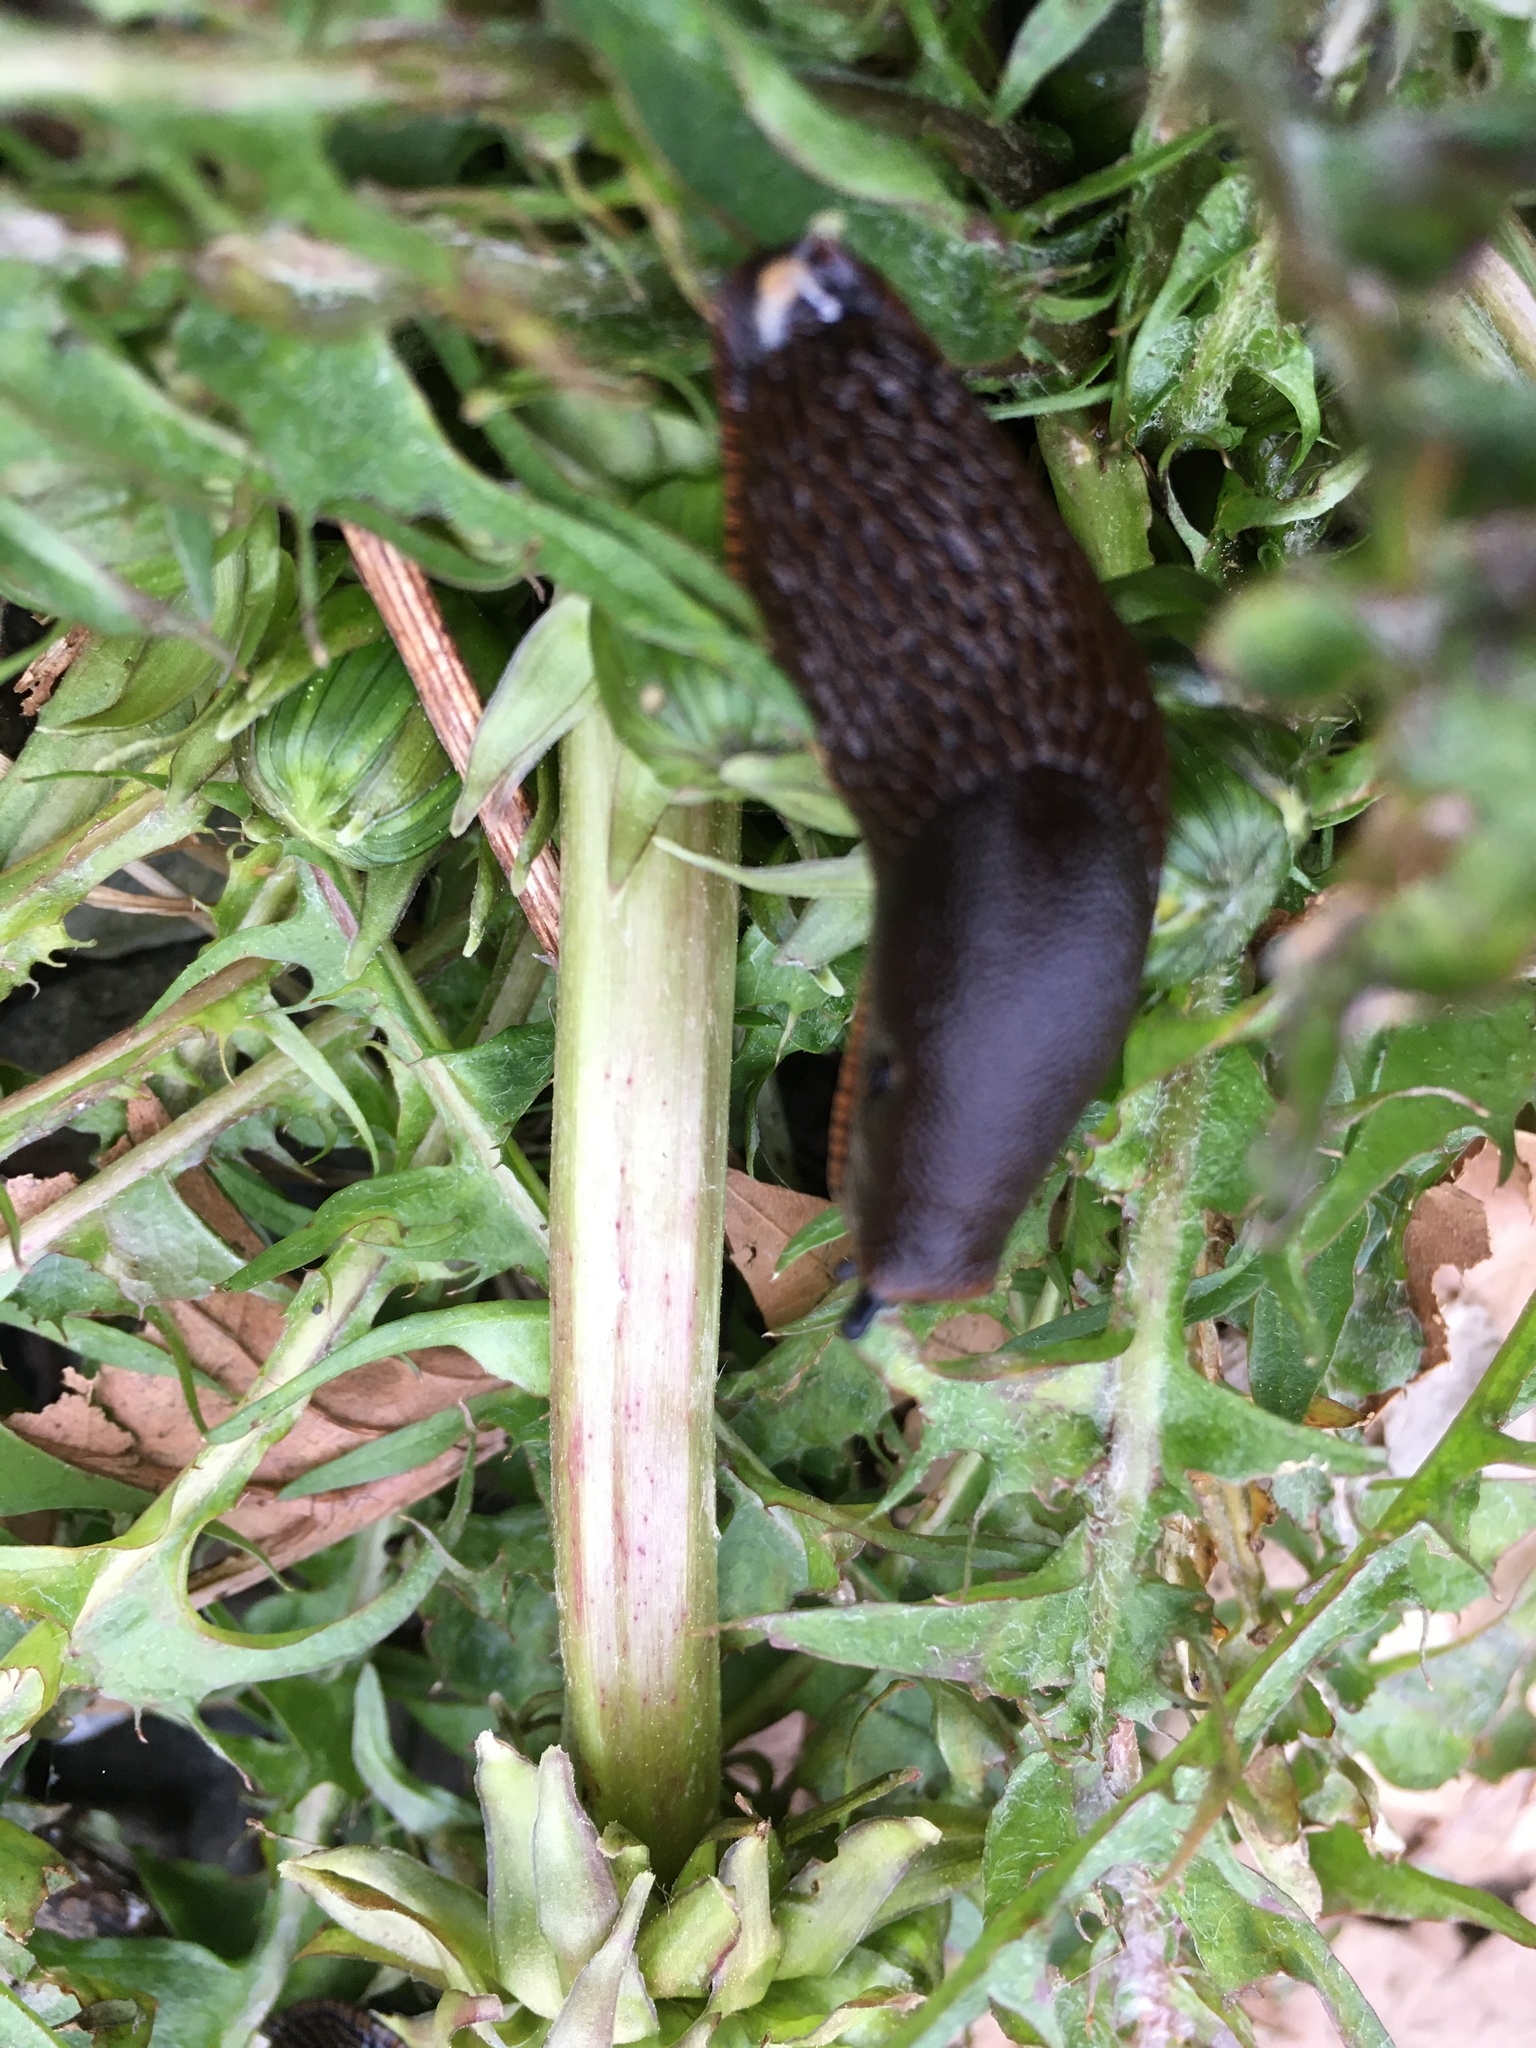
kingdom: Animalia
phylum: Mollusca
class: Gastropoda
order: Stylommatophora
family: Arionidae
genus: Arion
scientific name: Arion
